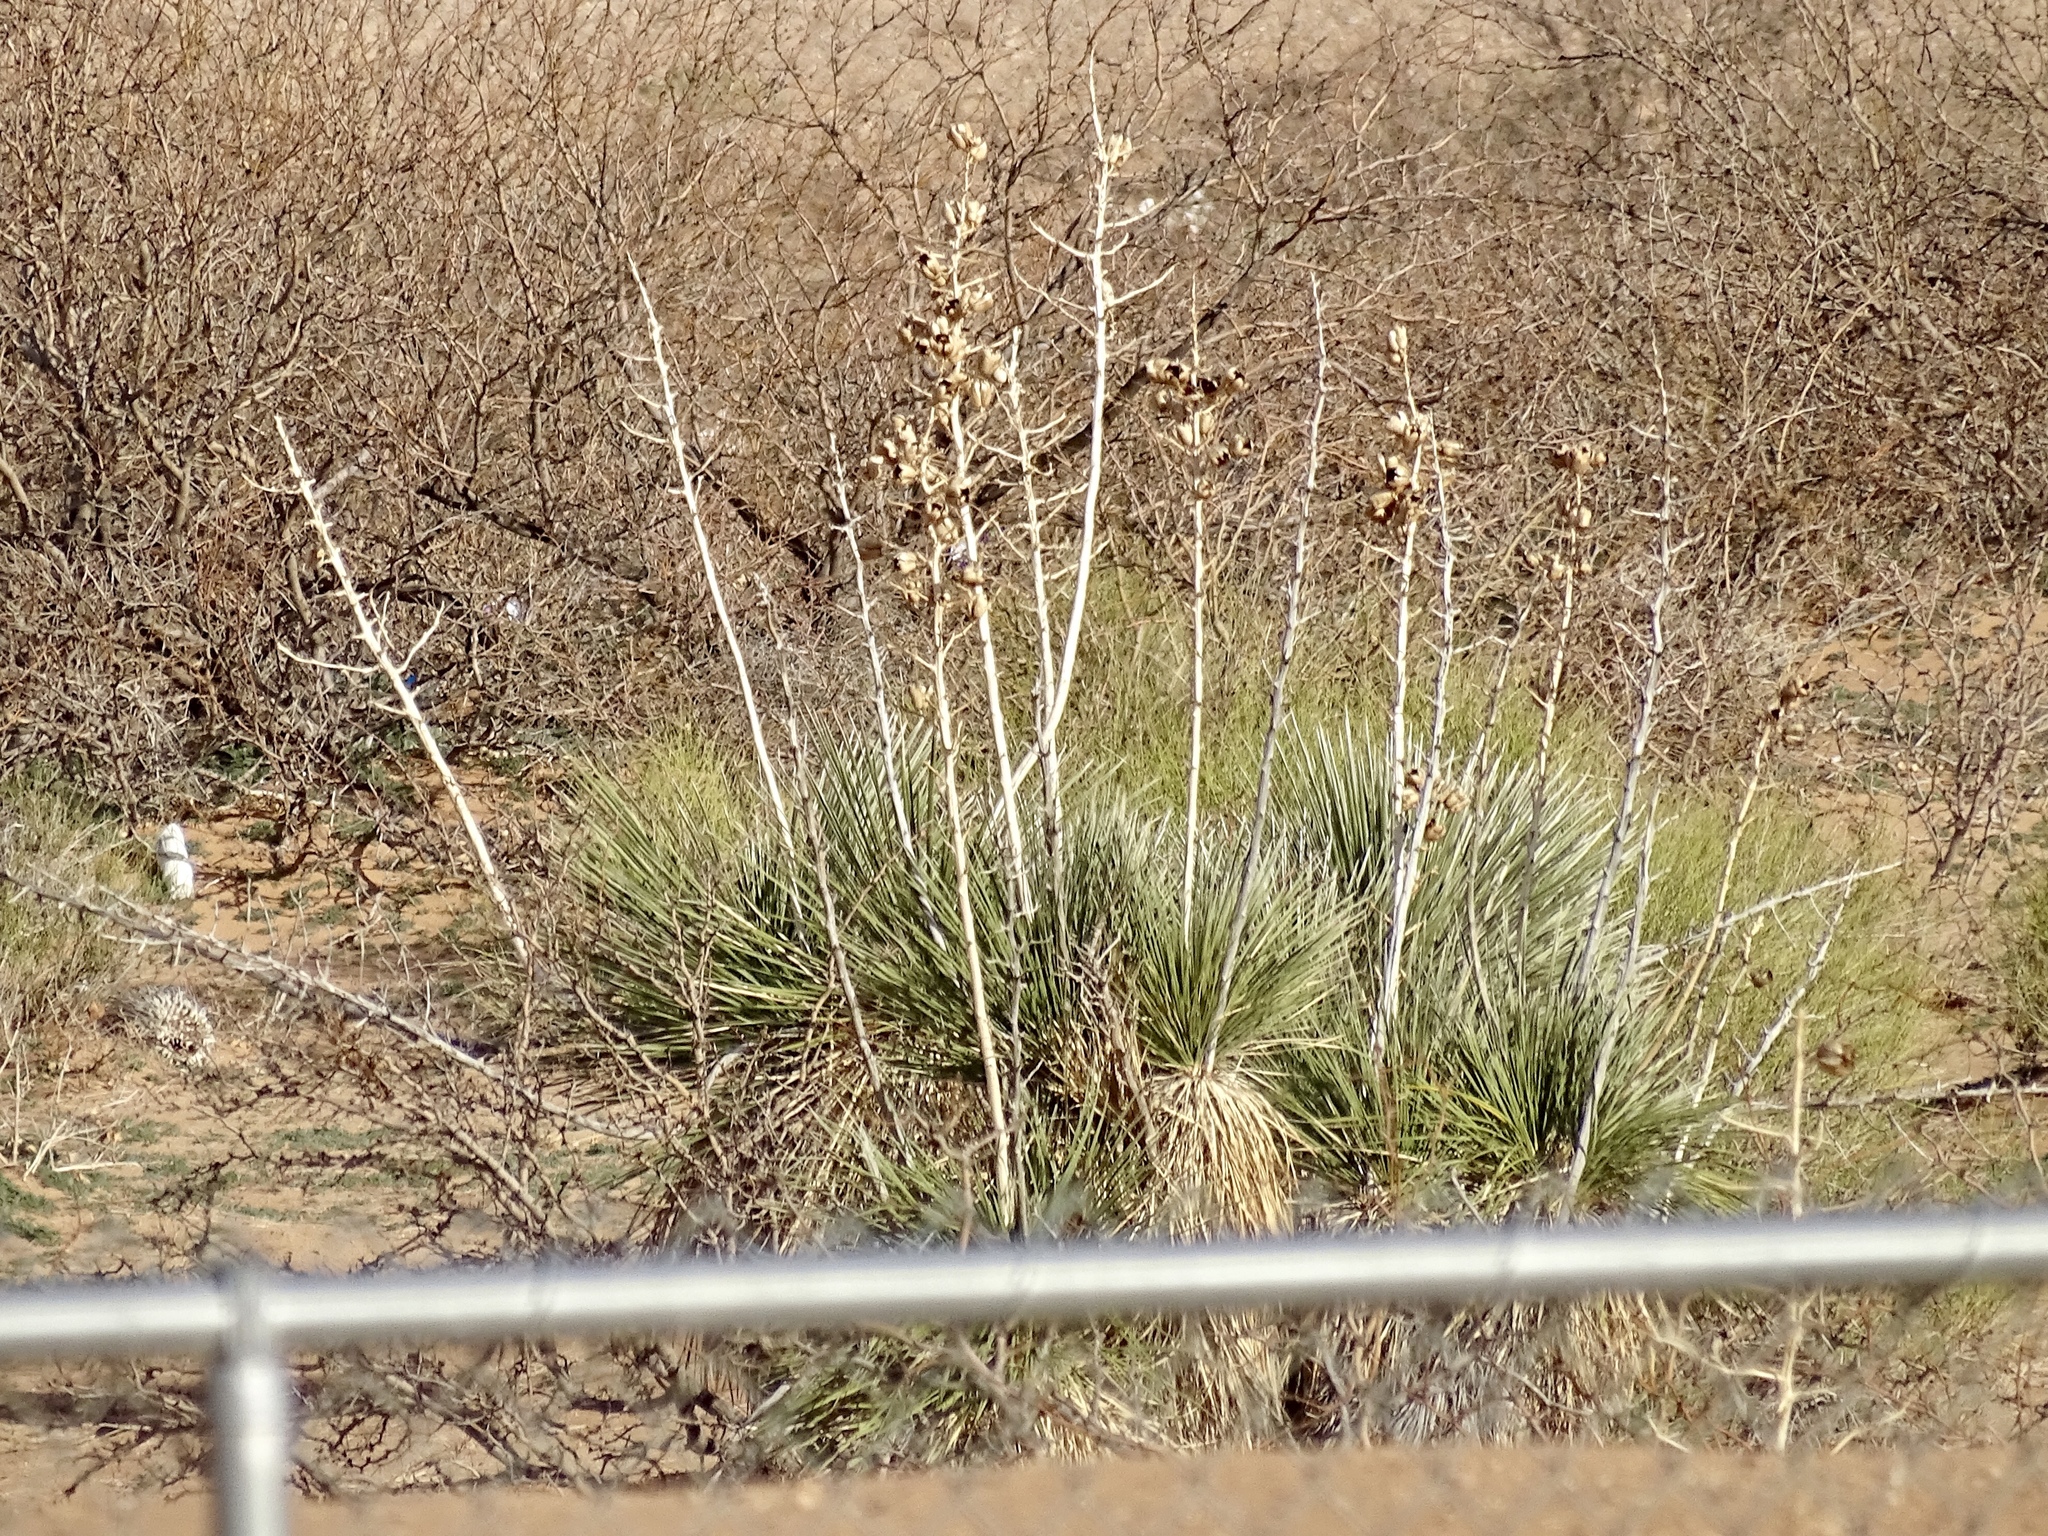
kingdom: Plantae
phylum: Tracheophyta
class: Liliopsida
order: Asparagales
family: Asparagaceae
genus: Yucca
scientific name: Yucca elata
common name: Palmella
